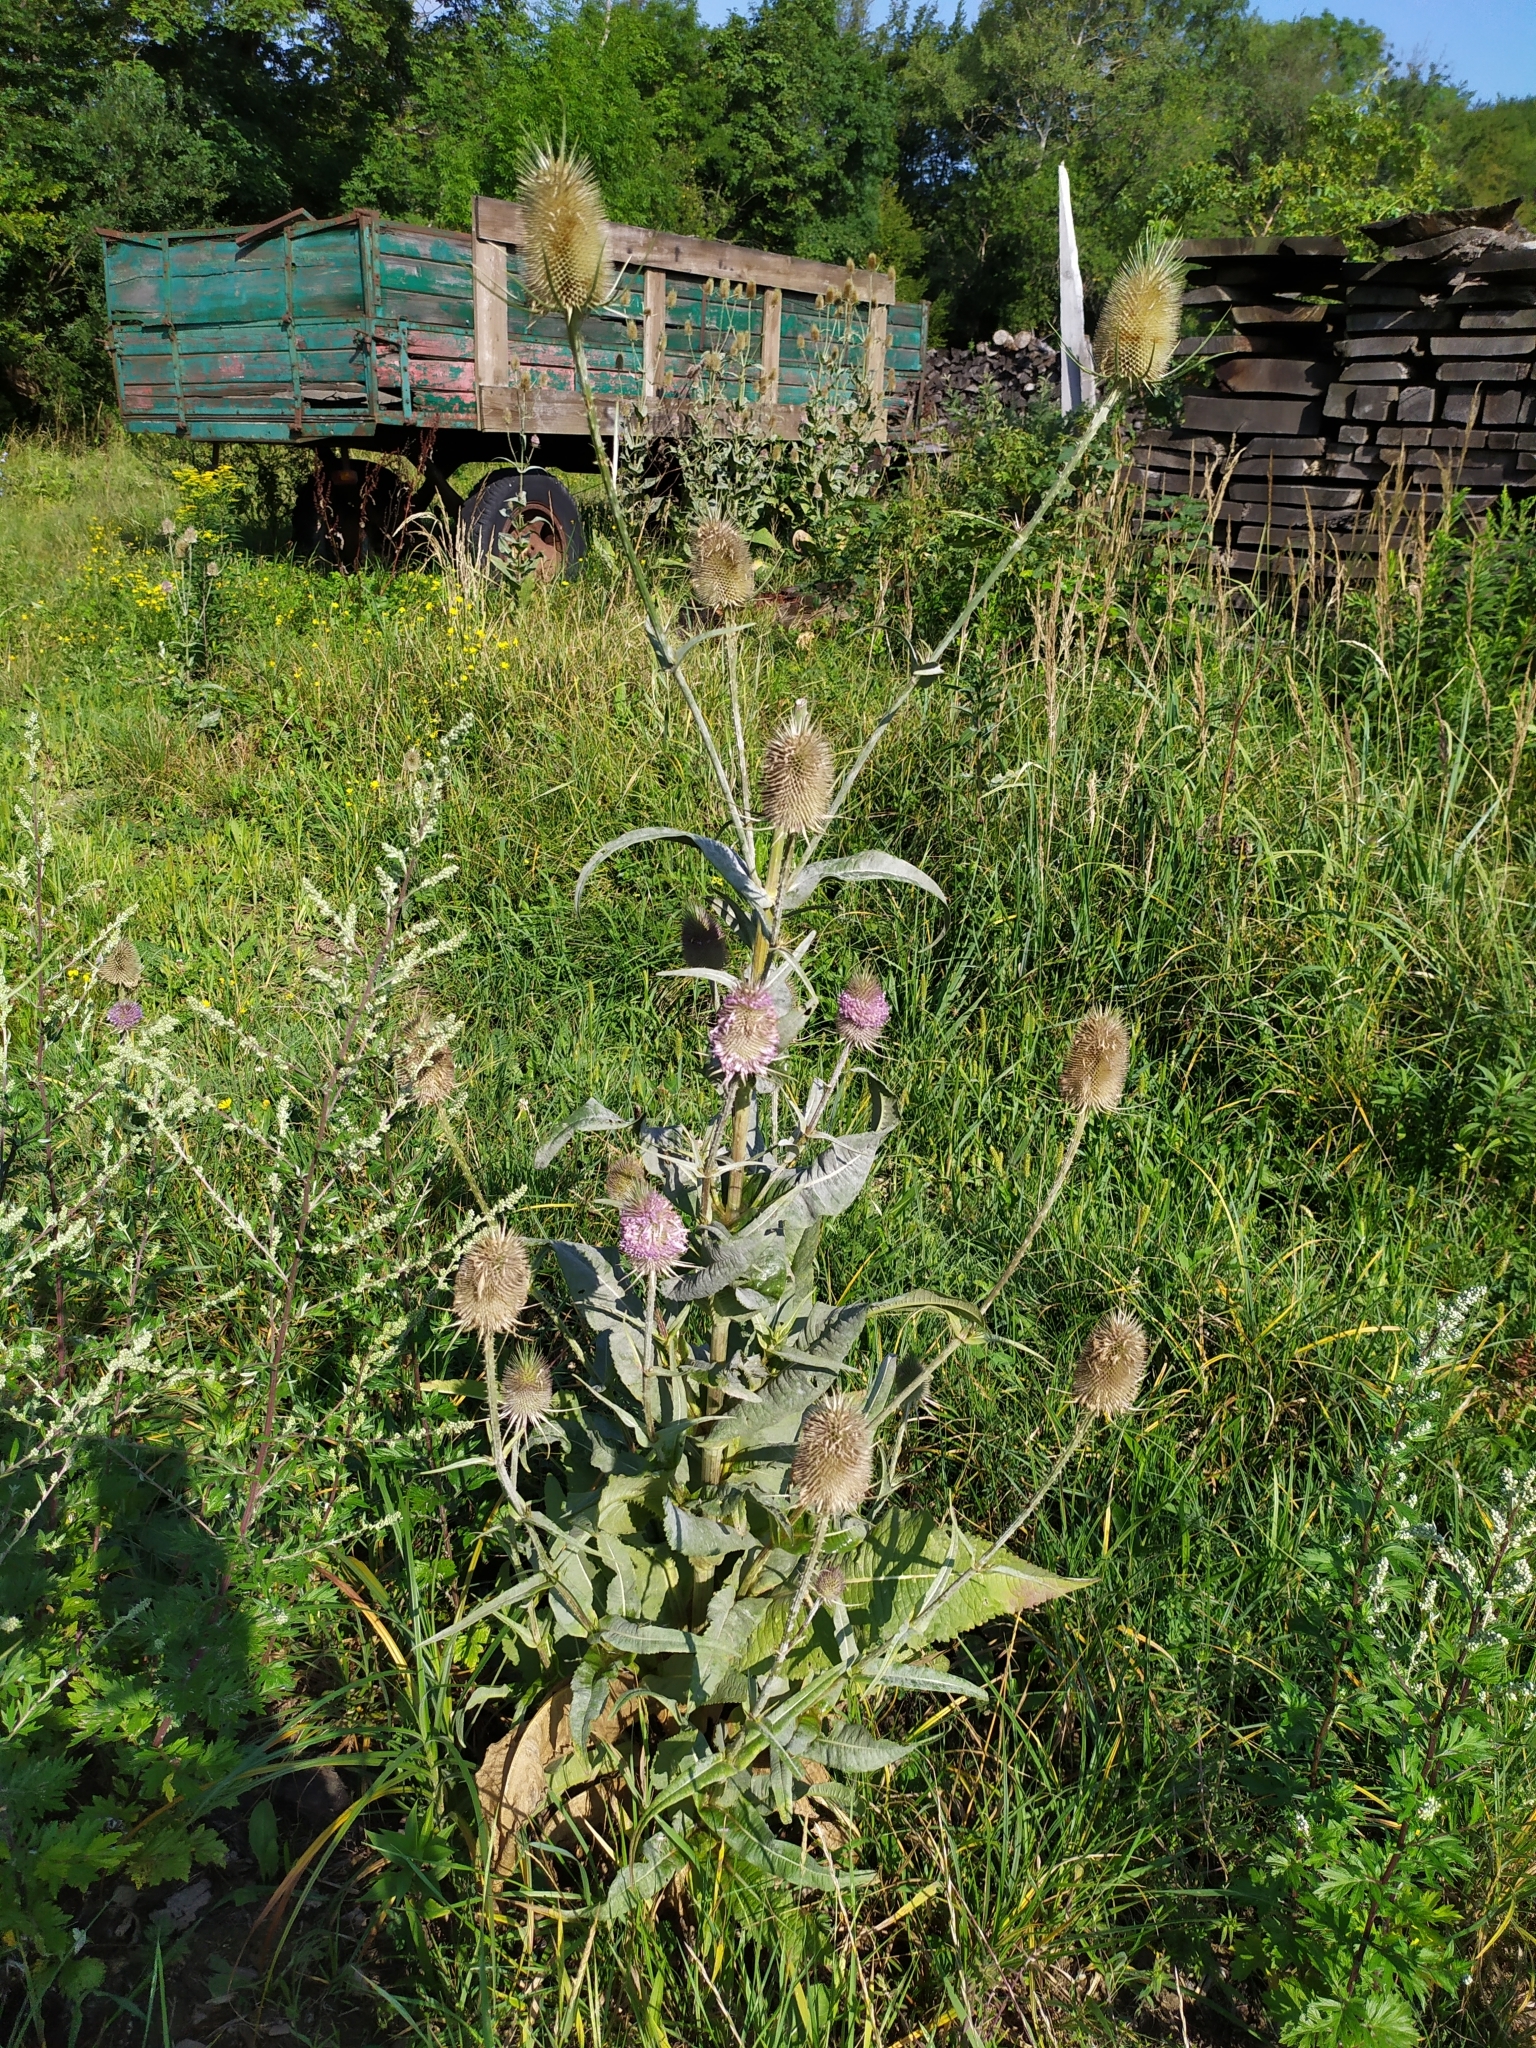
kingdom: Plantae
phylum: Tracheophyta
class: Magnoliopsida
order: Dipsacales
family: Caprifoliaceae
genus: Dipsacus
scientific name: Dipsacus fullonum
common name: Teasel
